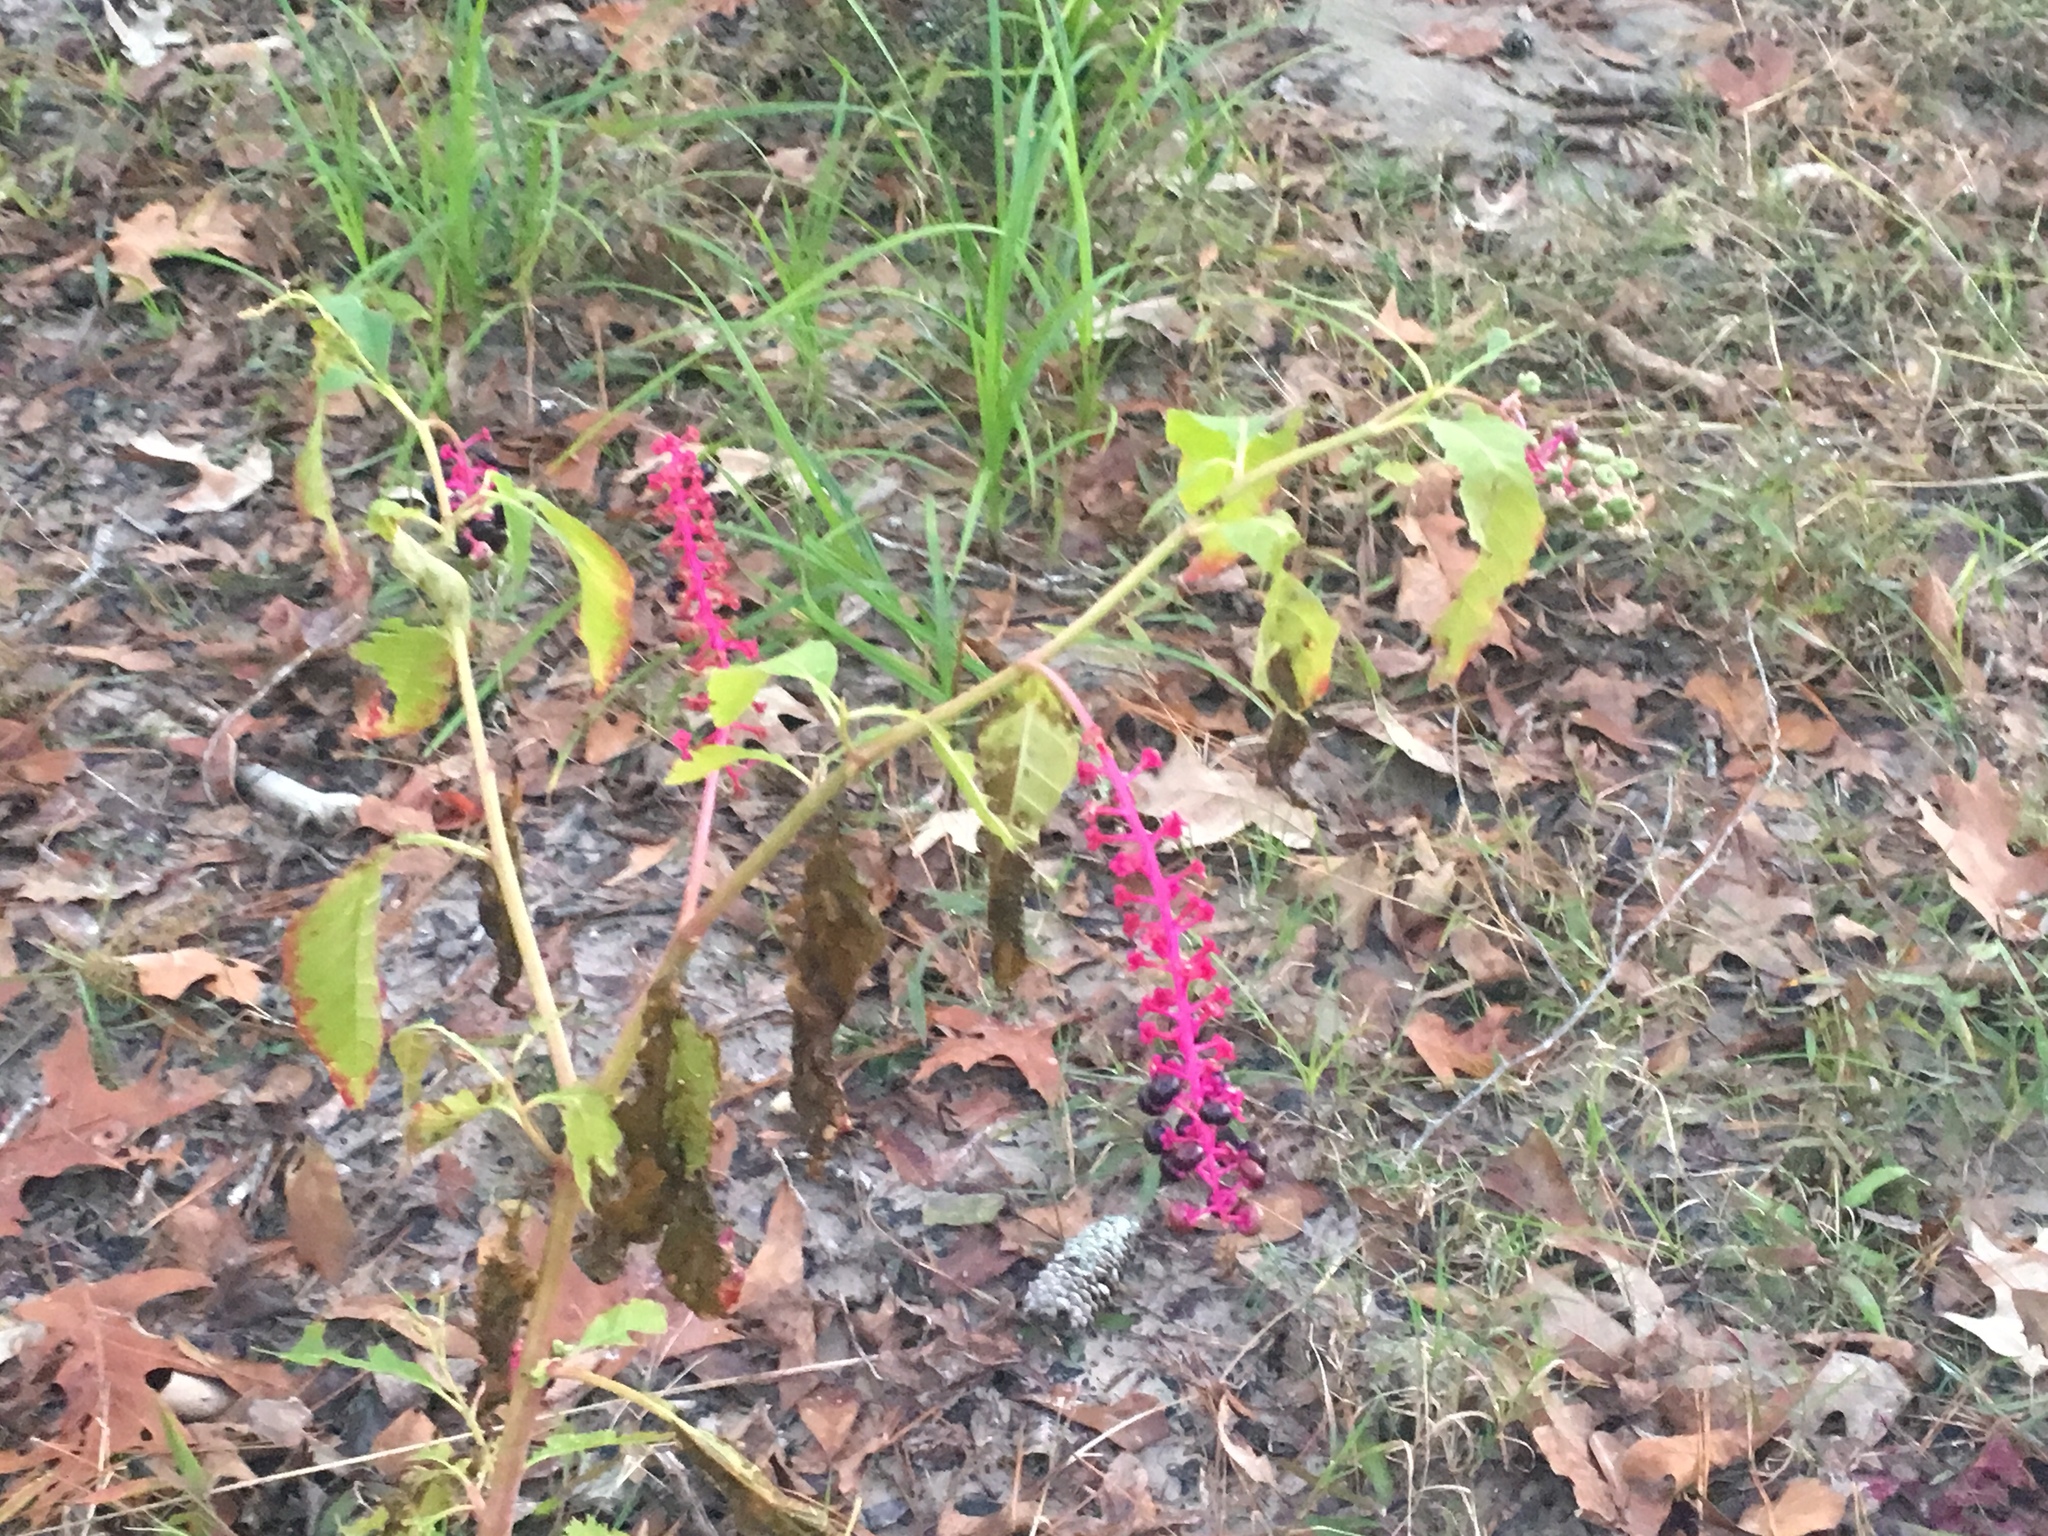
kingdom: Plantae
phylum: Tracheophyta
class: Magnoliopsida
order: Caryophyllales
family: Phytolaccaceae
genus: Phytolacca
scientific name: Phytolacca americana
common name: American pokeweed
